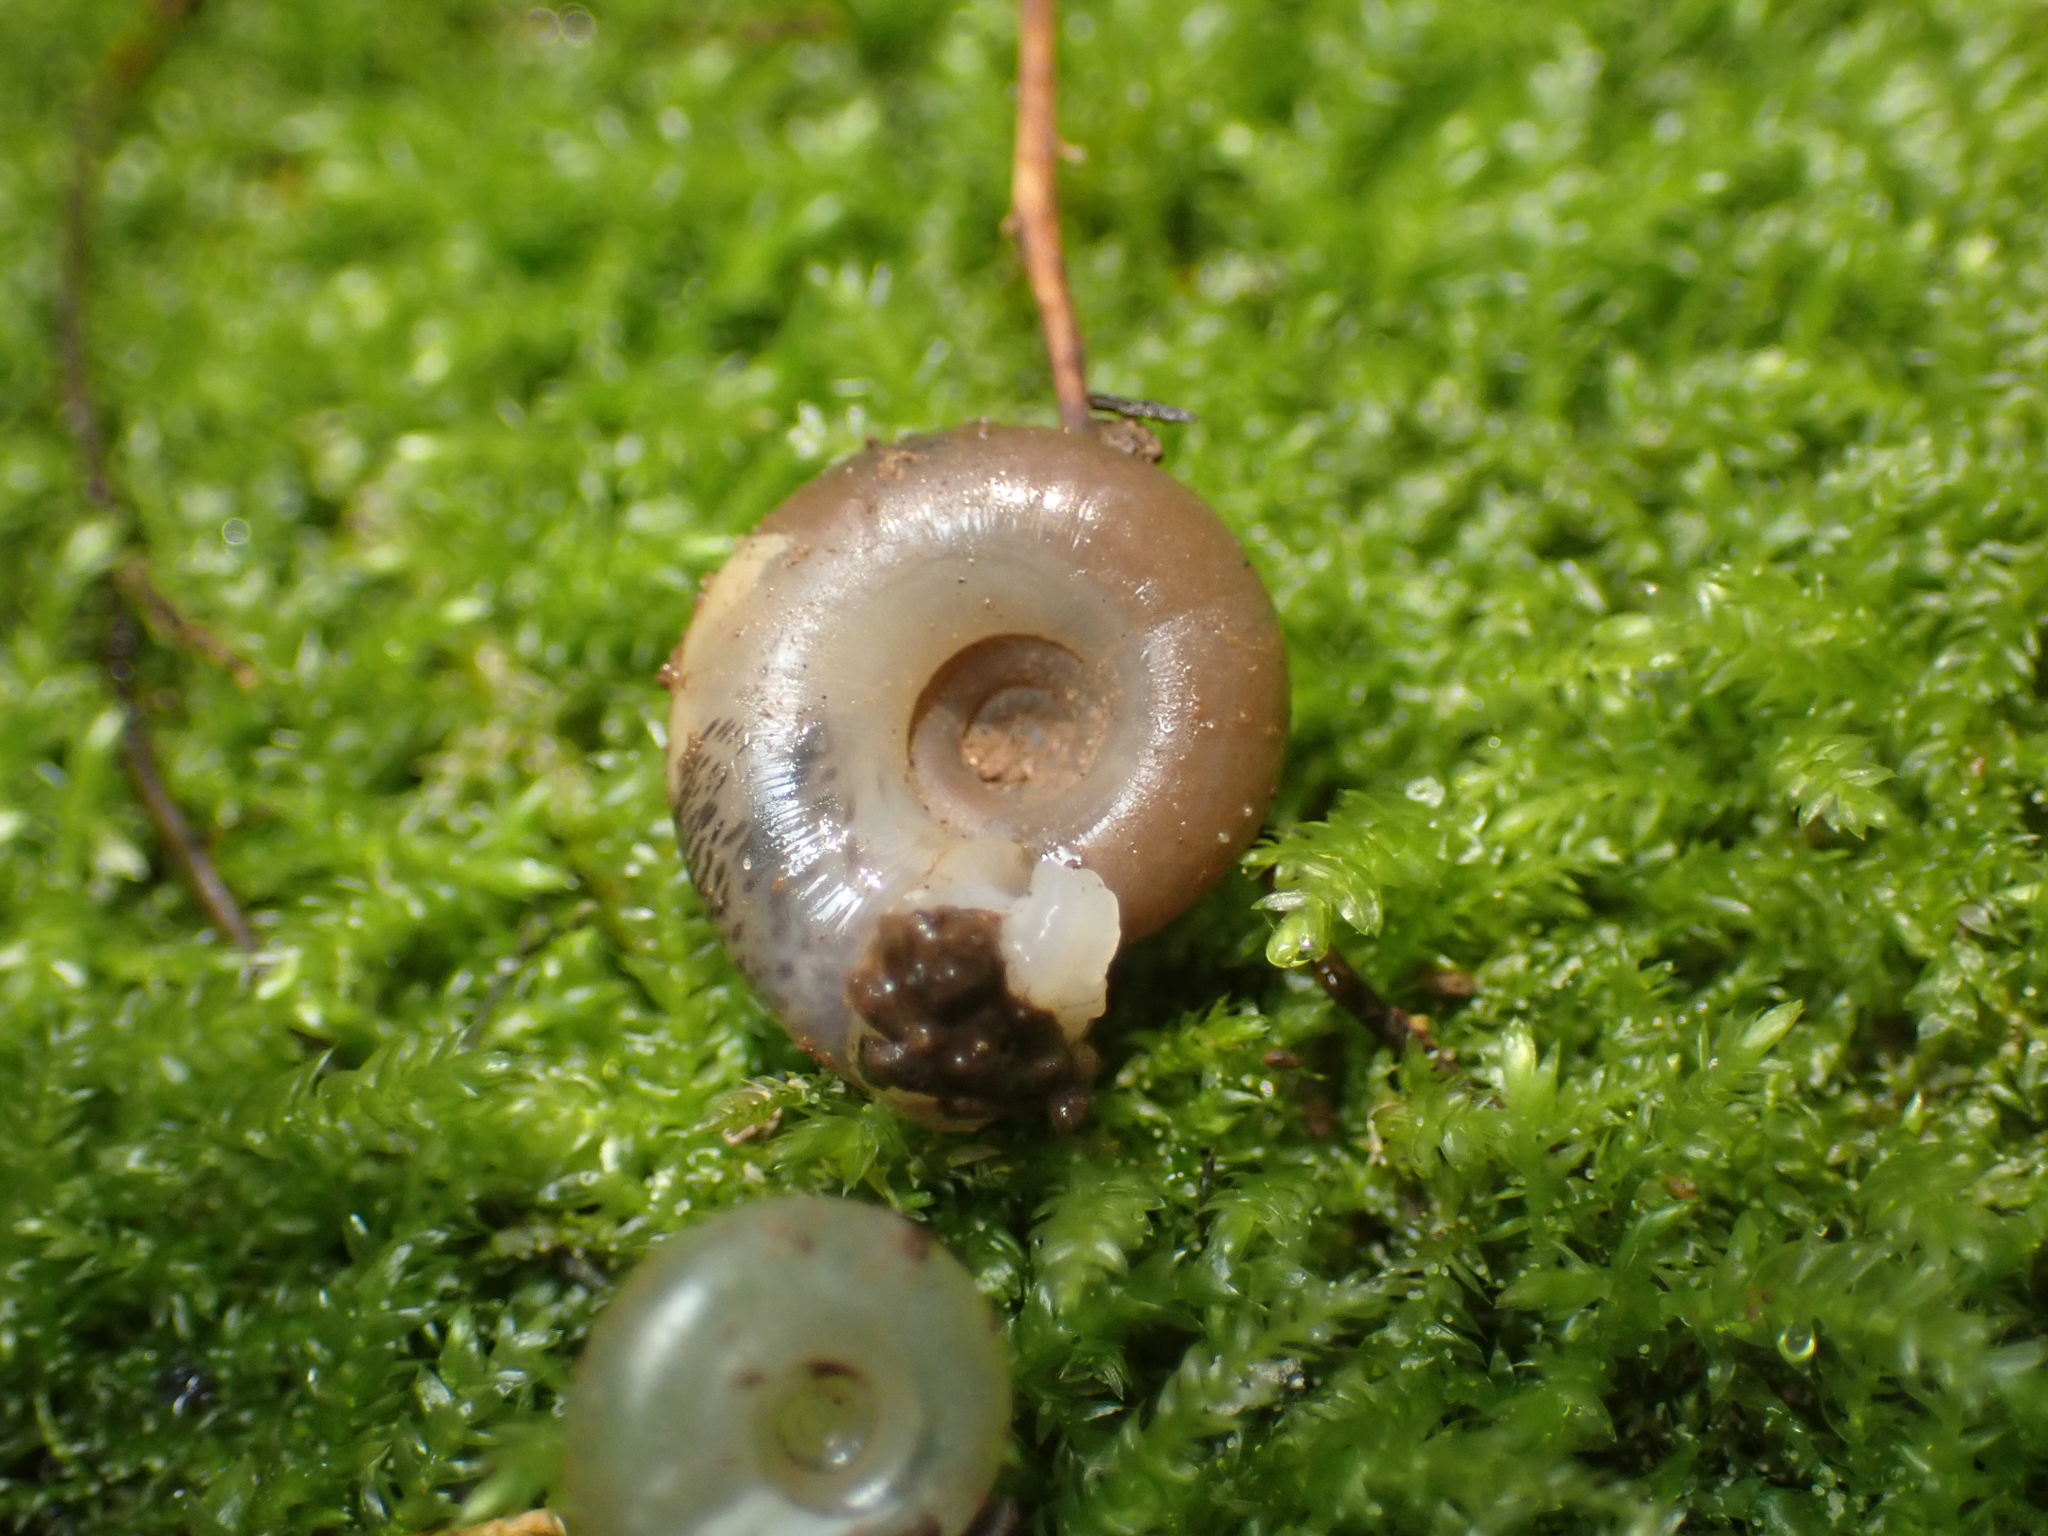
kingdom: Animalia
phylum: Mollusca
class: Gastropoda
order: Stylommatophora
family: Haplotrematidae
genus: Haplotrema
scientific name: Haplotrema keepi
